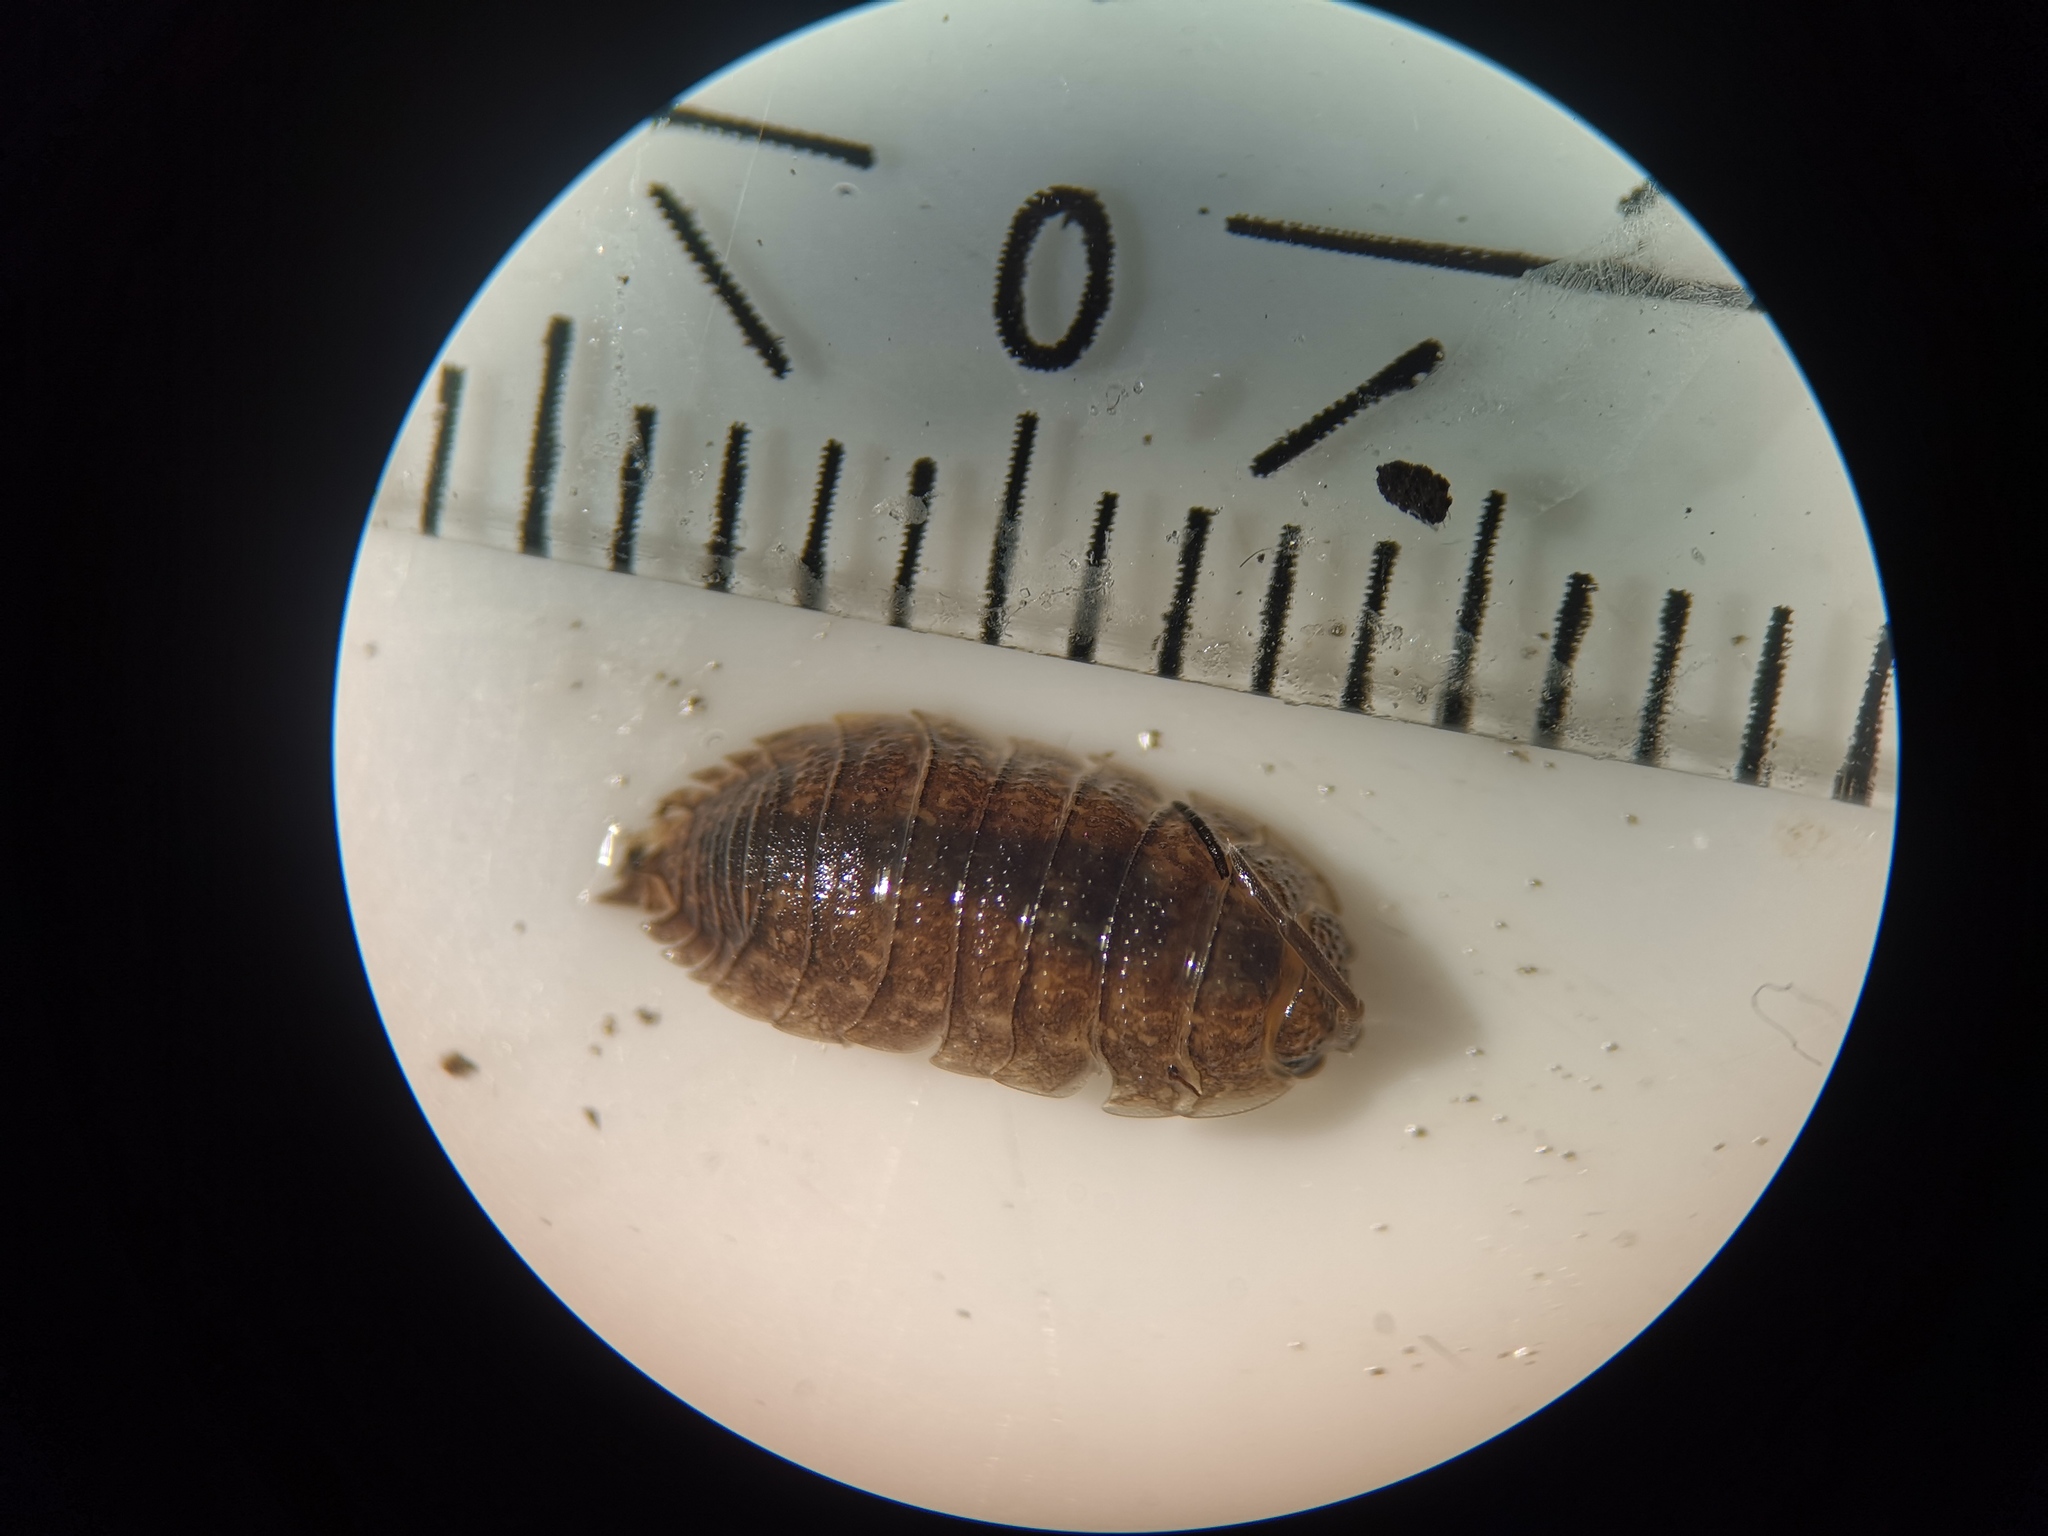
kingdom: Animalia
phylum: Arthropoda
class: Malacostraca
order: Isopoda
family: Porcellionidae
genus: Porcellio
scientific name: Porcellio scaber
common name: Common rough woodlouse
